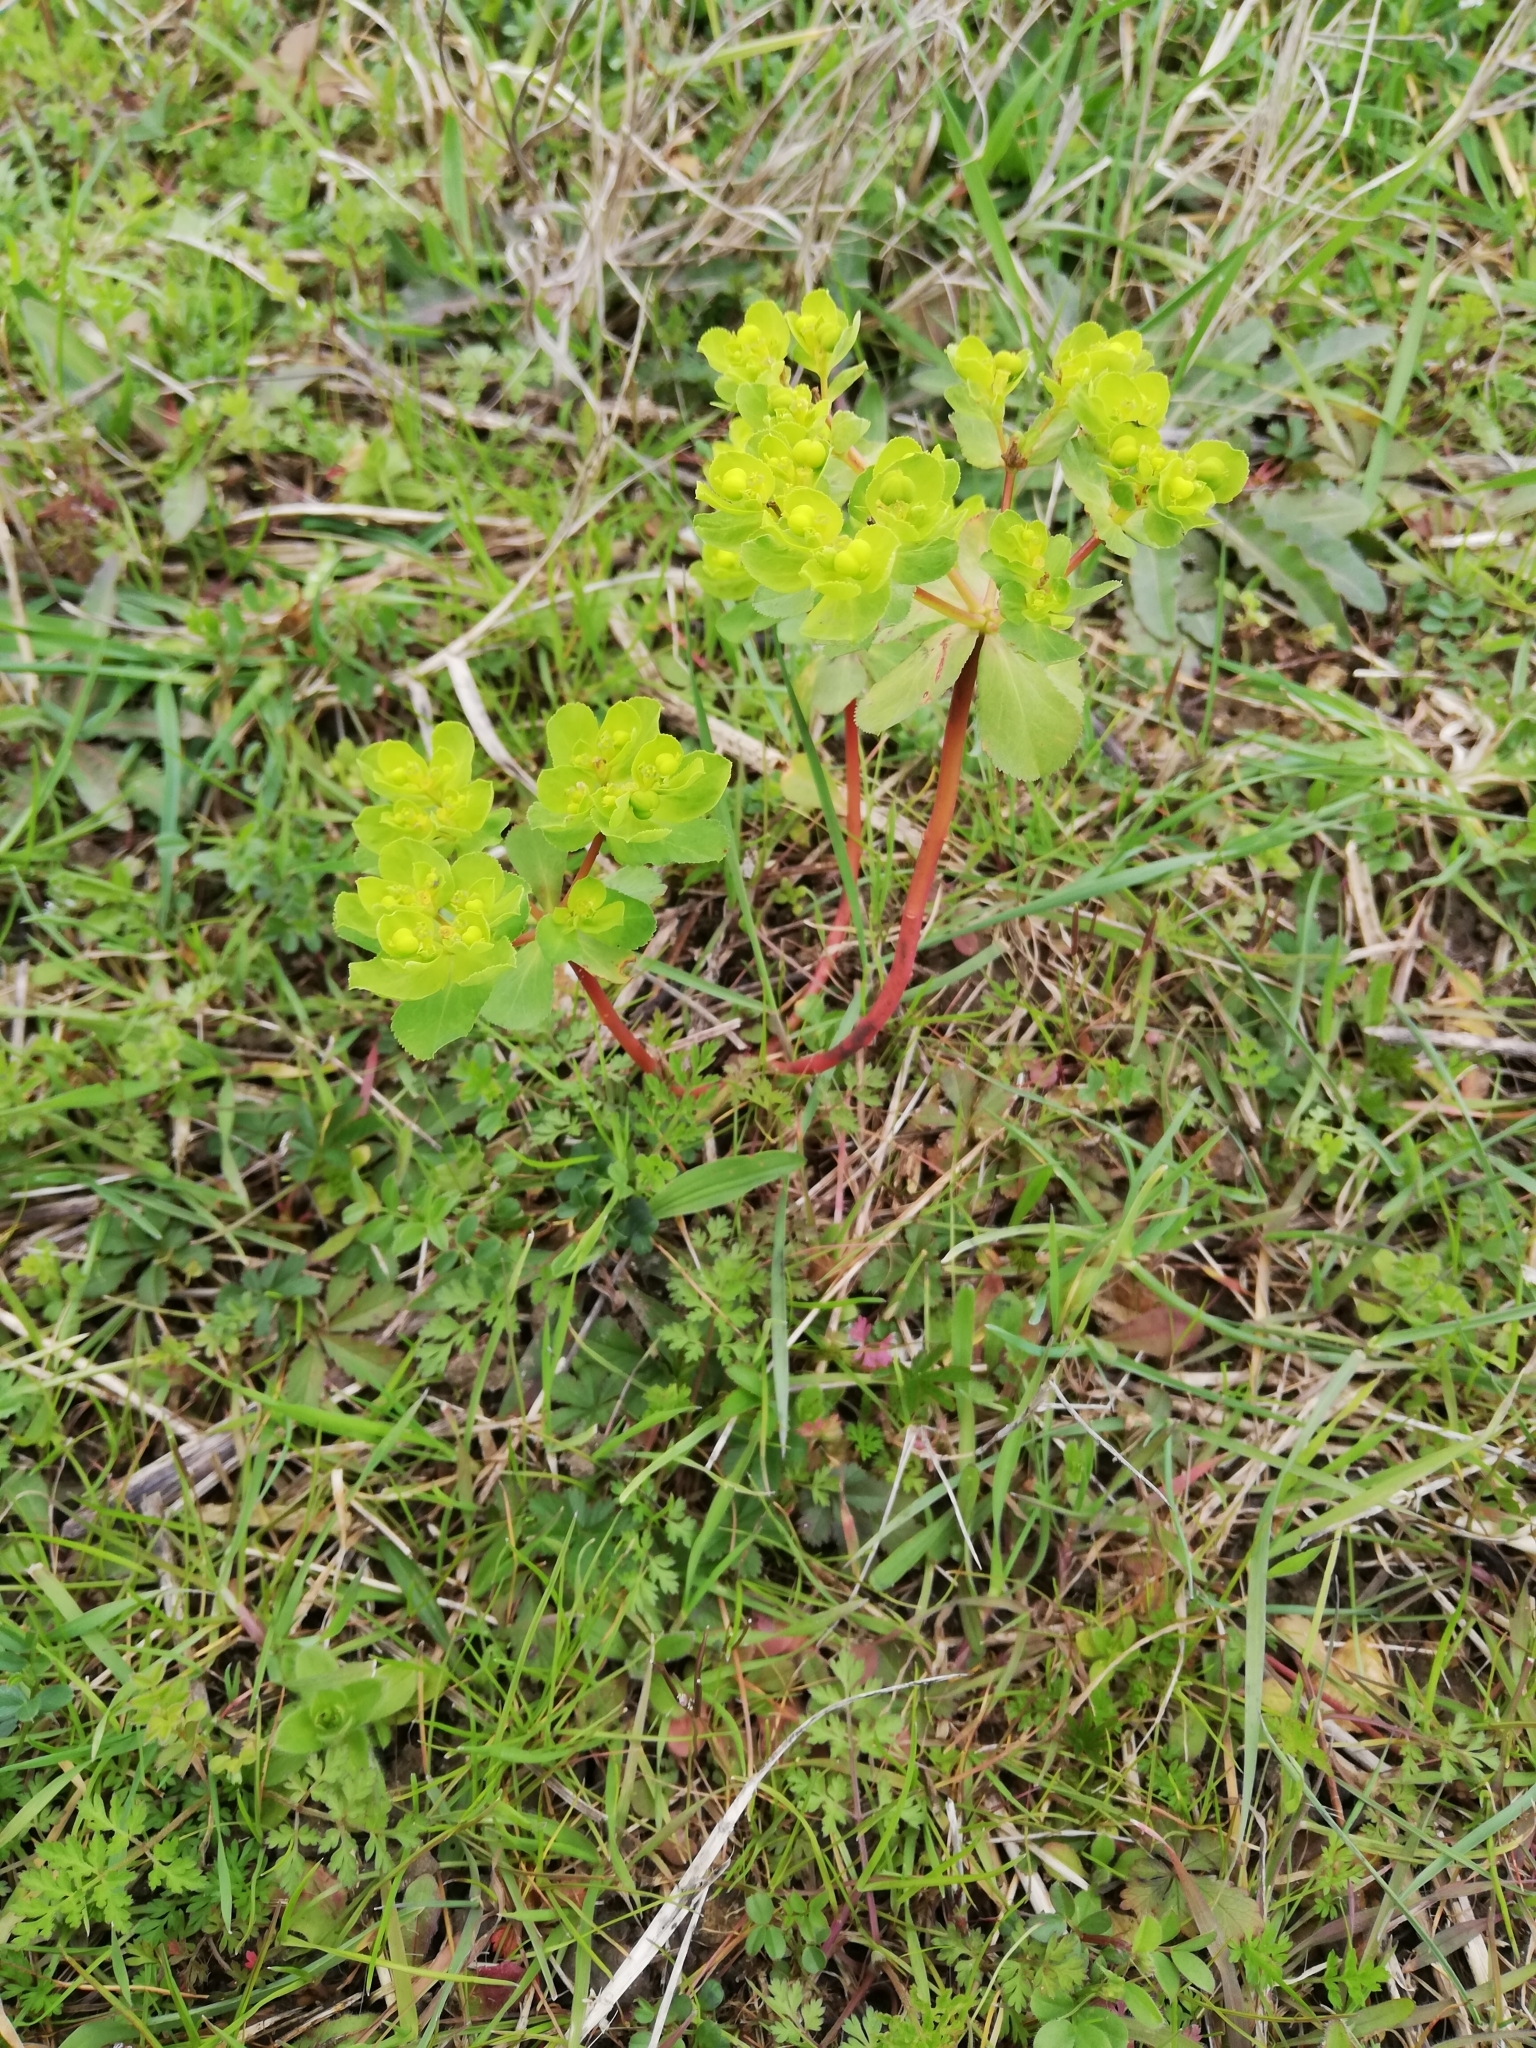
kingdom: Plantae
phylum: Tracheophyta
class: Magnoliopsida
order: Malpighiales
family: Euphorbiaceae
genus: Euphorbia
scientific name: Euphorbia helioscopia
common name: Sun spurge
